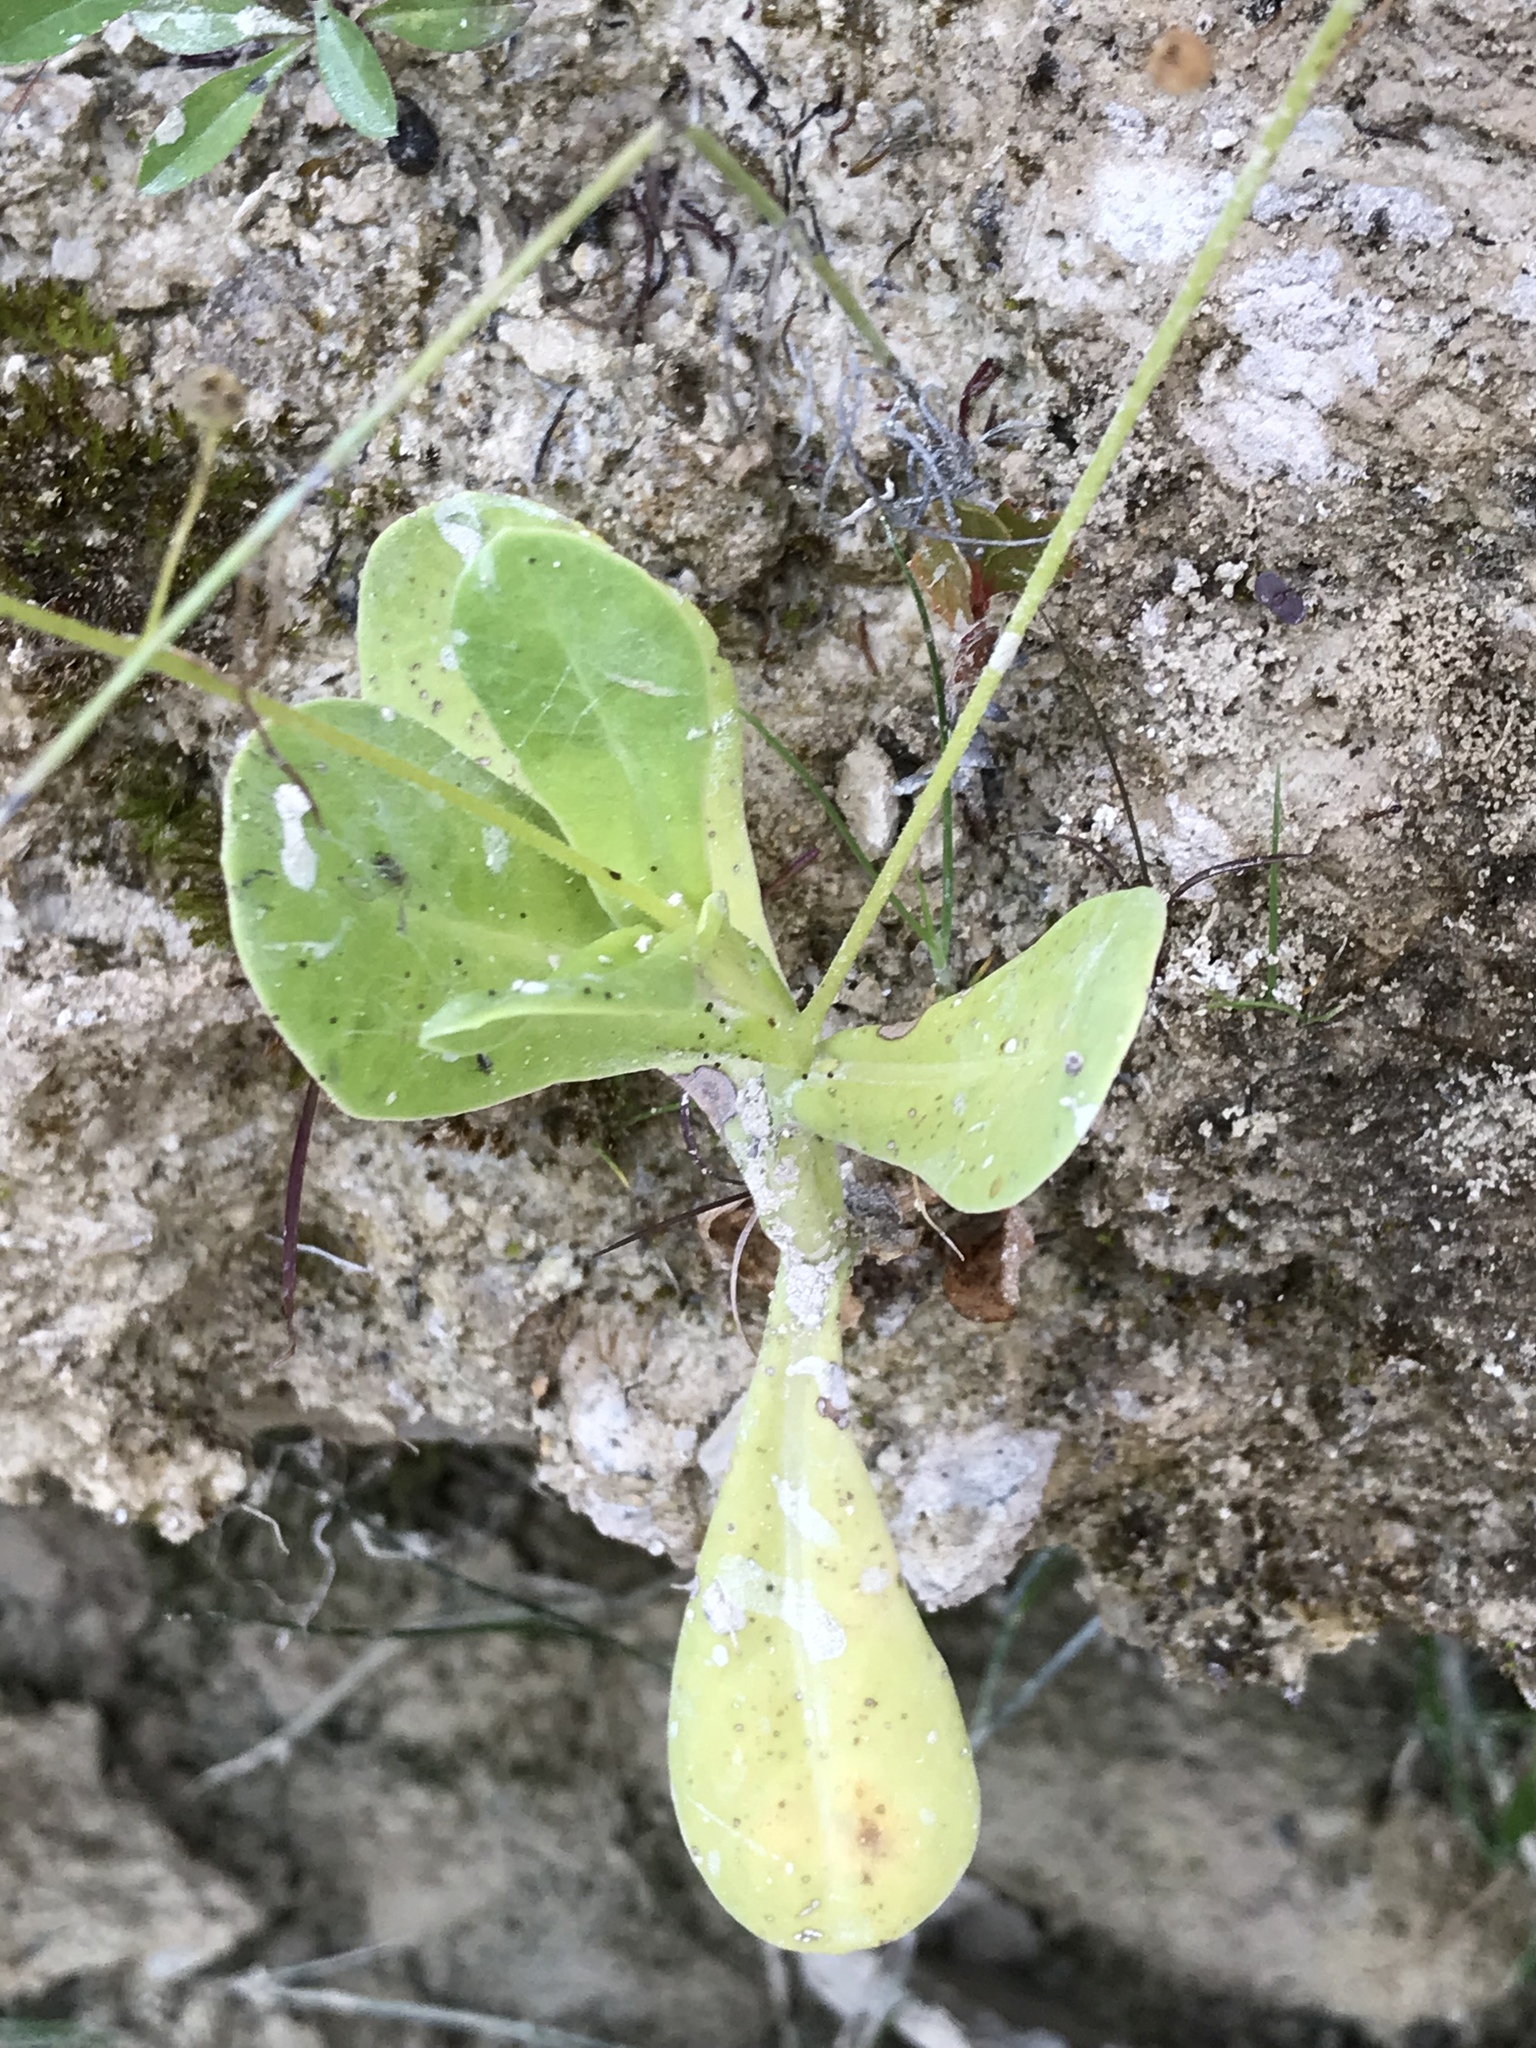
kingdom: Plantae
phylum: Tracheophyta
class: Magnoliopsida
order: Ericales
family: Primulaceae
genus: Samolus
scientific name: Samolus ebracteatus
